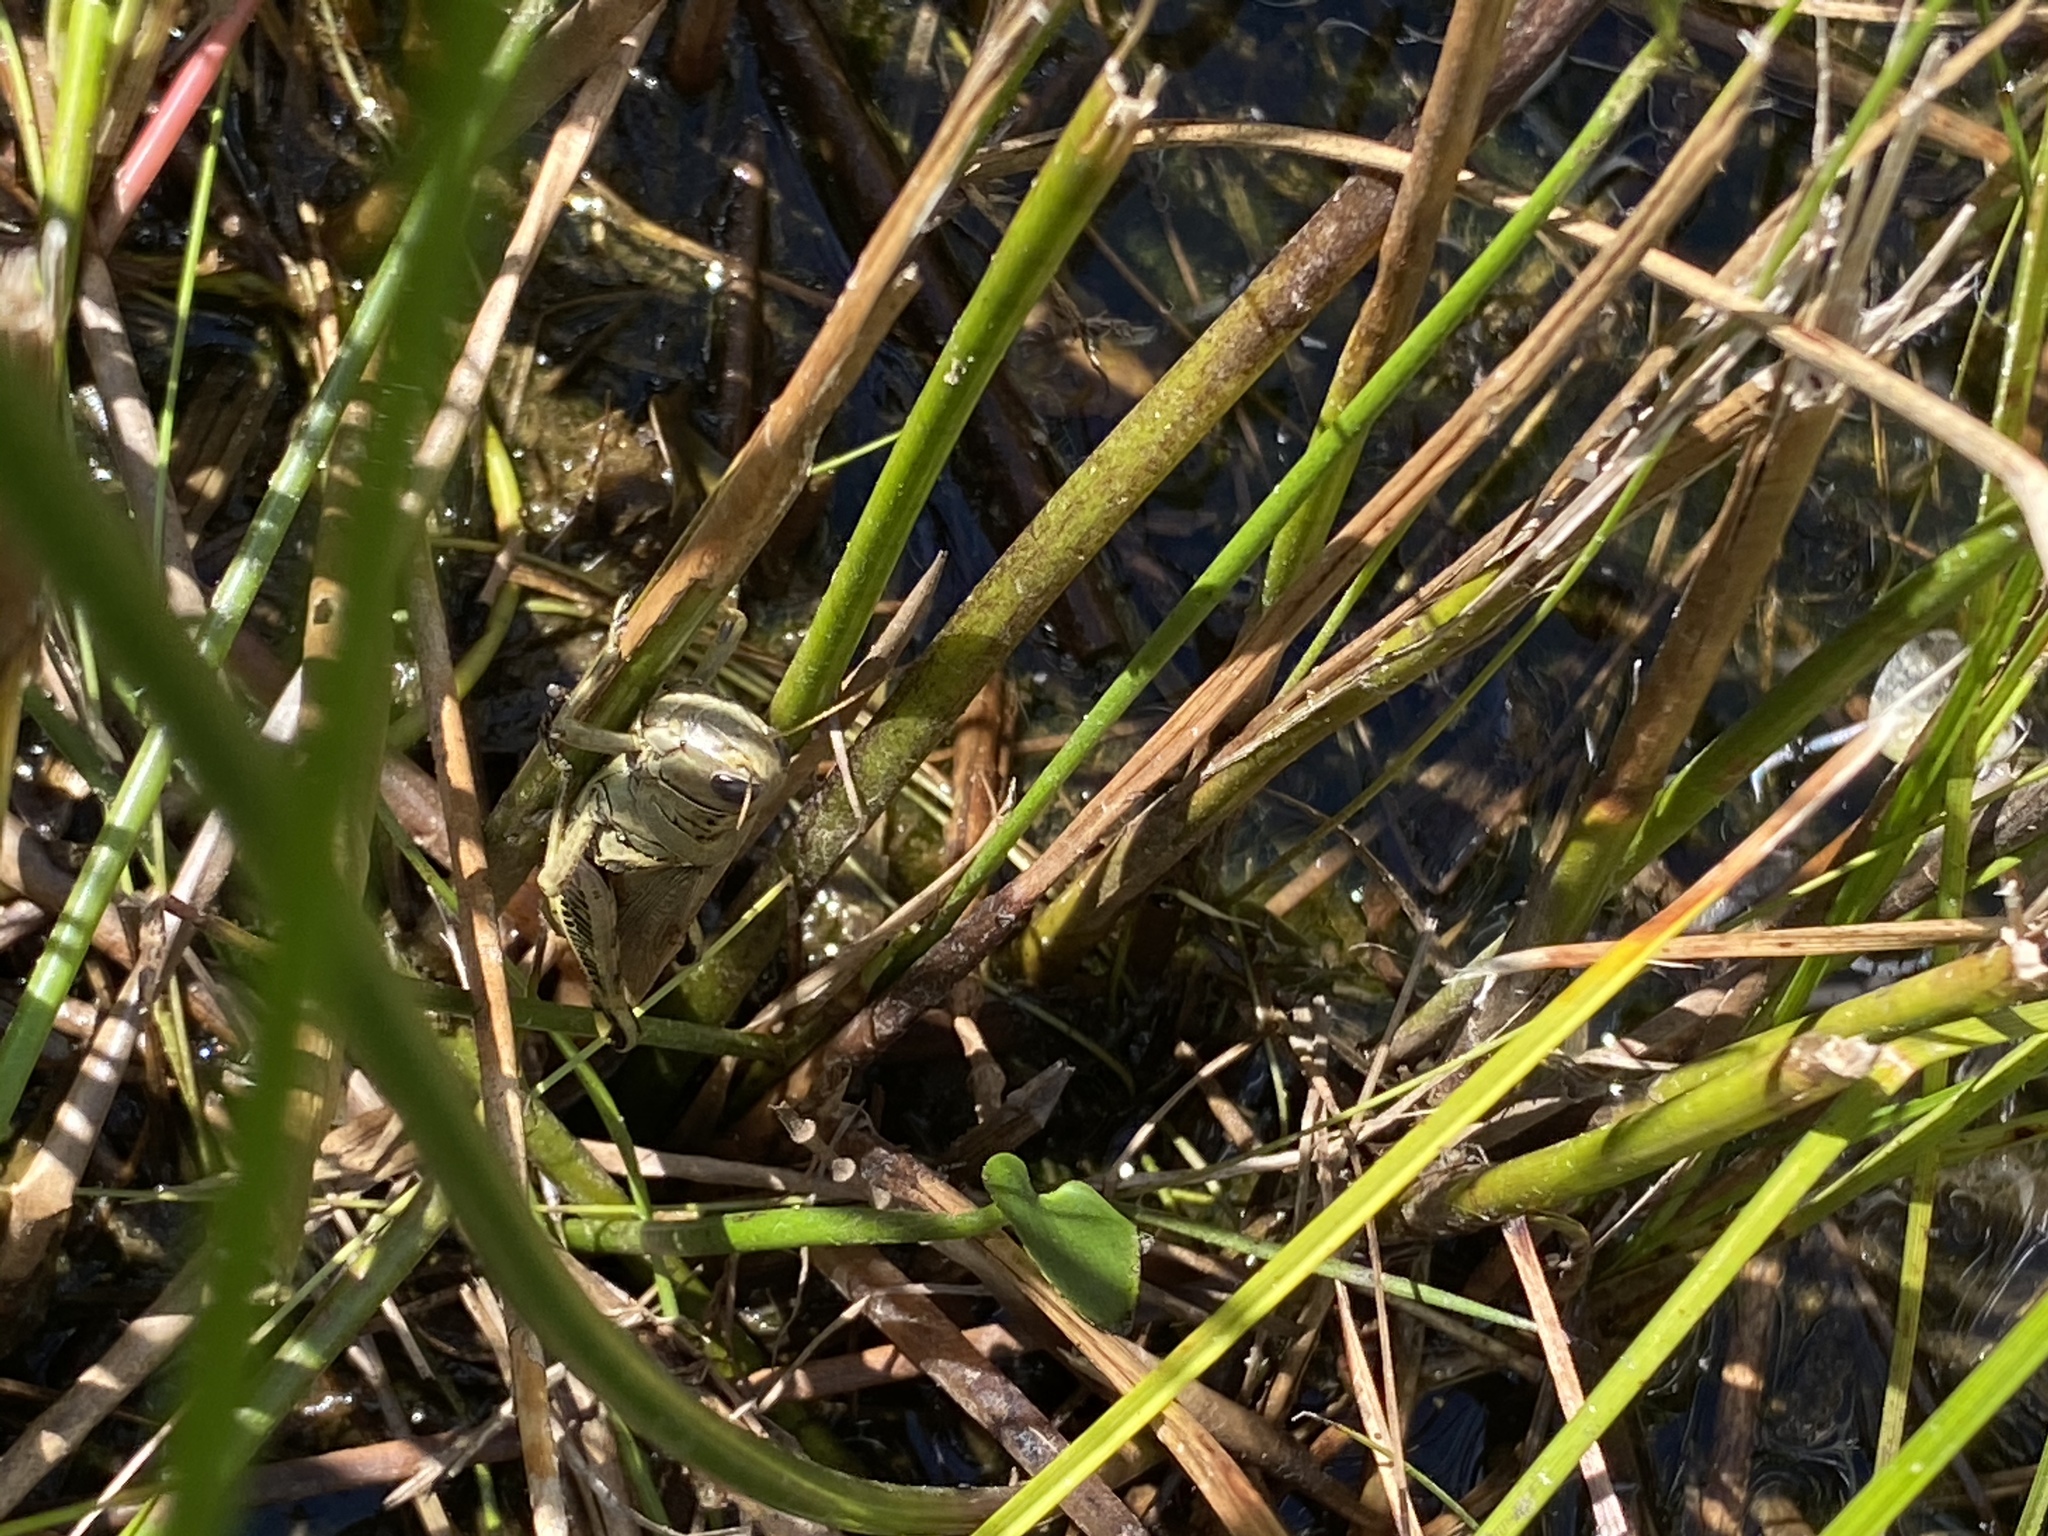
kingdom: Animalia
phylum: Arthropoda
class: Insecta
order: Orthoptera
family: Acrididae
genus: Melanoplus
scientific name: Melanoplus differentialis
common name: Differential grasshopper
